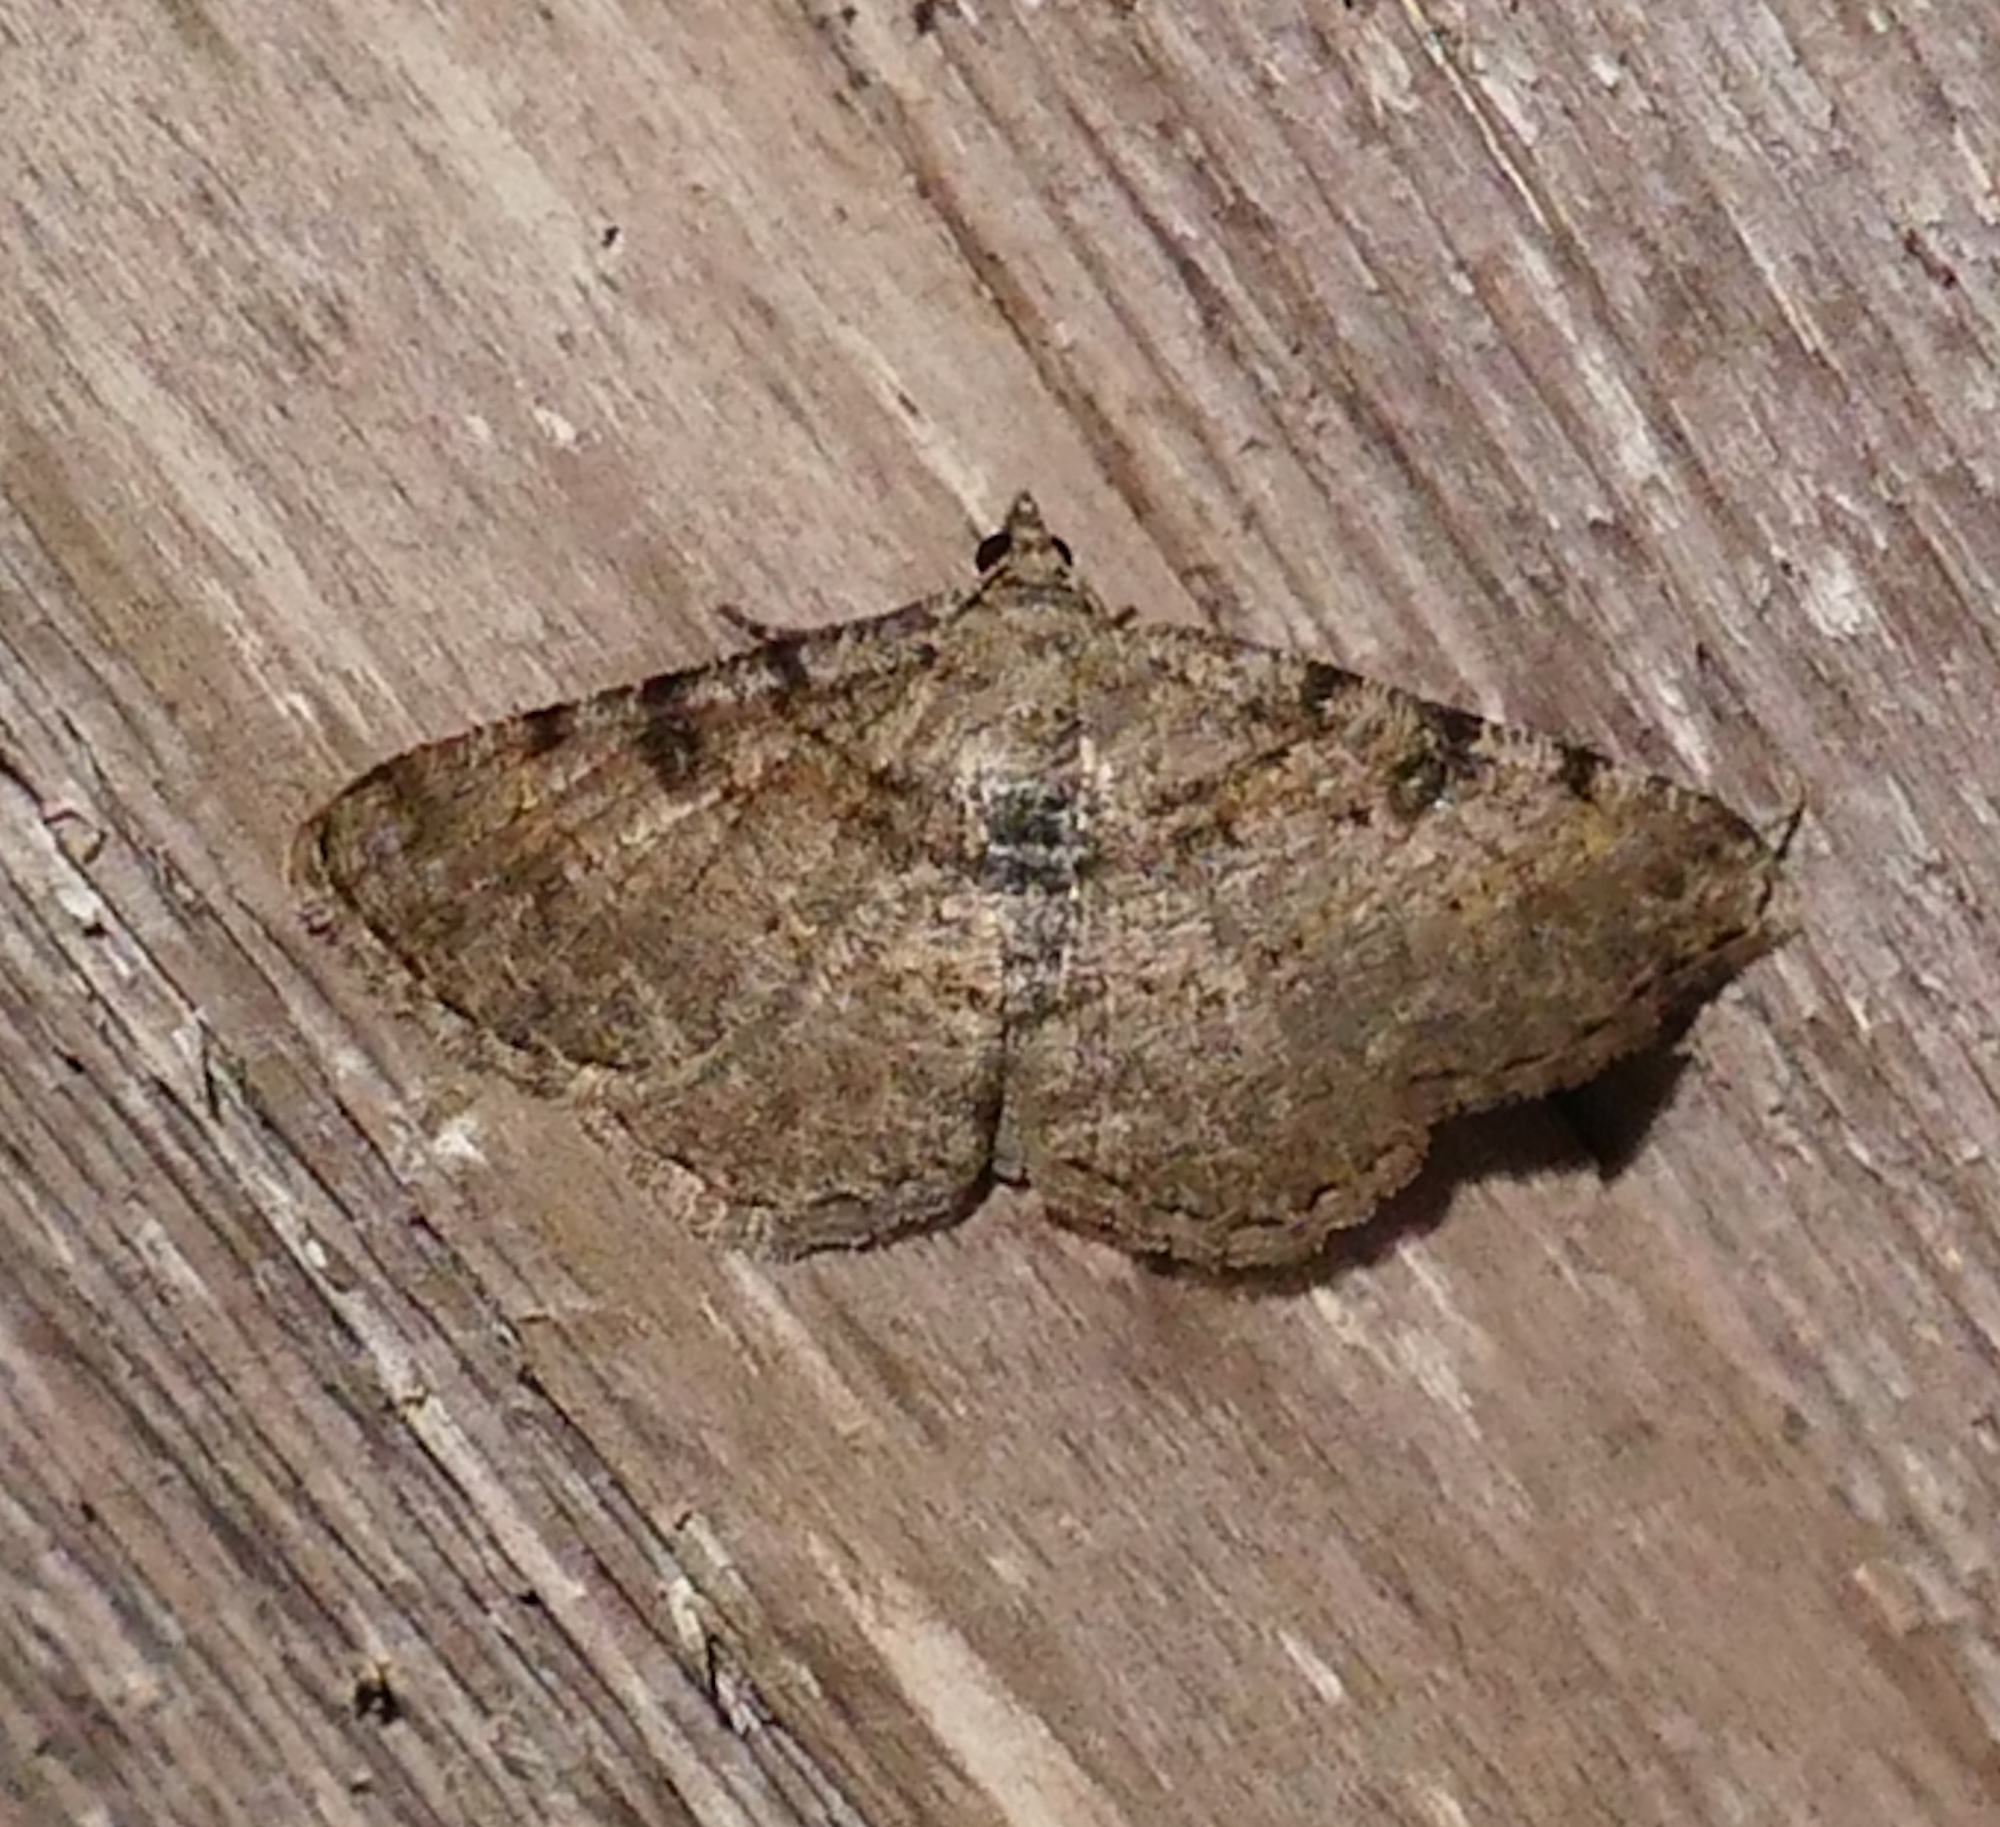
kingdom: Animalia
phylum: Arthropoda
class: Insecta
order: Lepidoptera
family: Geometridae
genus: Digrammia
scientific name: Digrammia gnophosaria
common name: Hollow-spotted angle
